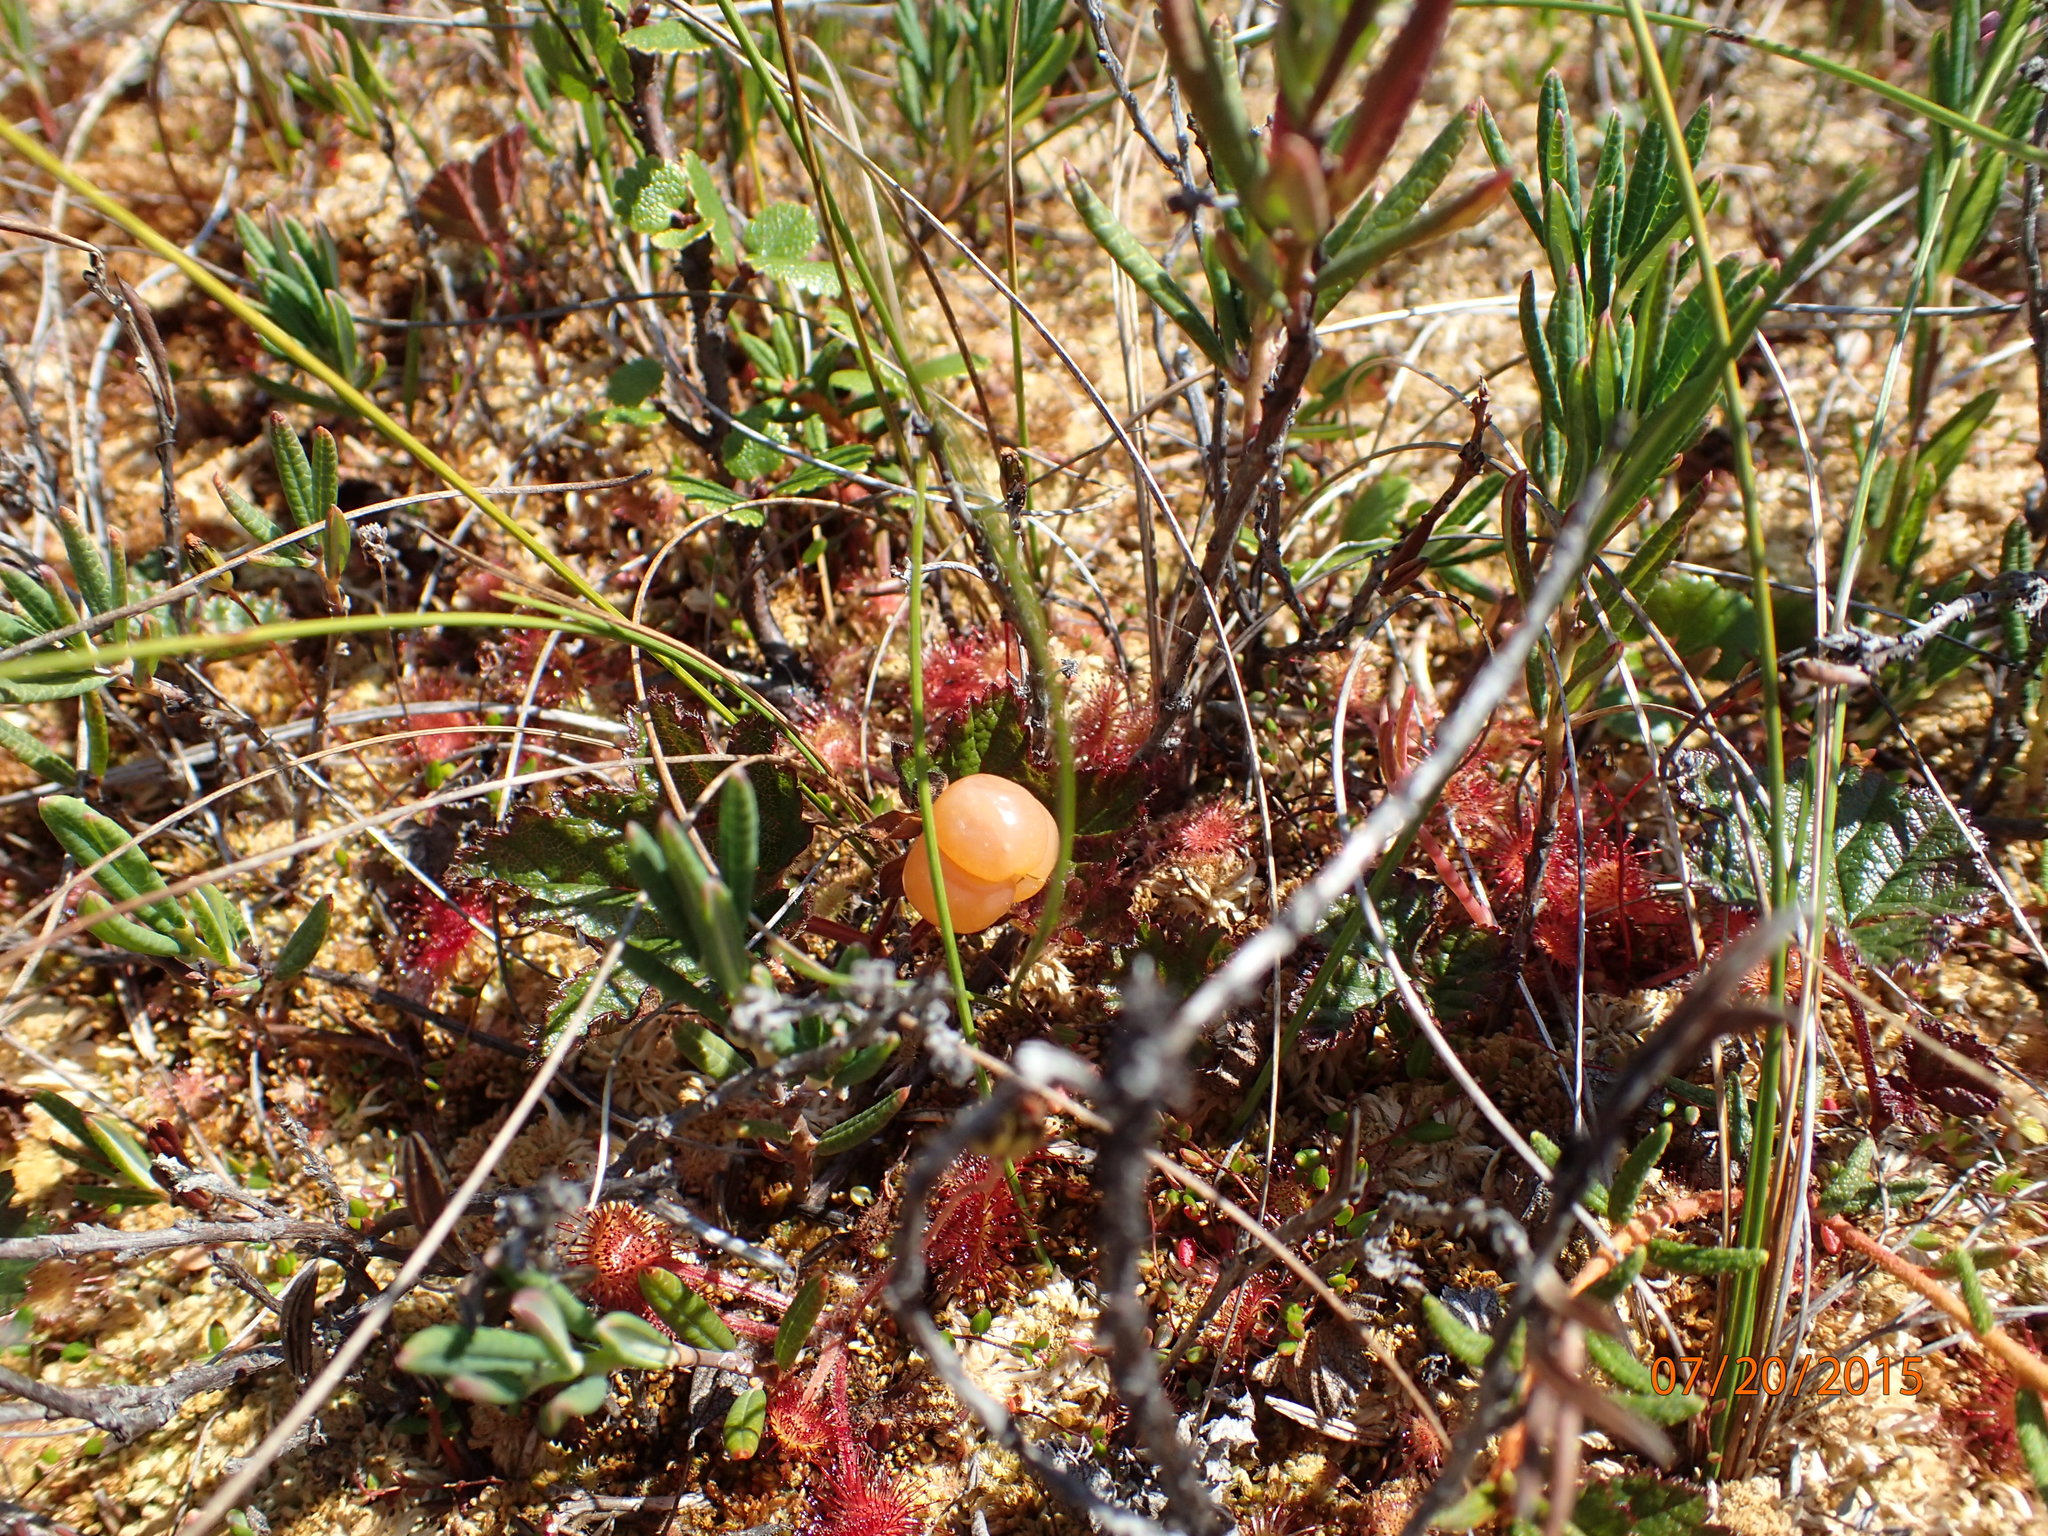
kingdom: Plantae
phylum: Tracheophyta
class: Magnoliopsida
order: Rosales
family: Rosaceae
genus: Rubus
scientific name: Rubus chamaemorus
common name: Cloudberry
